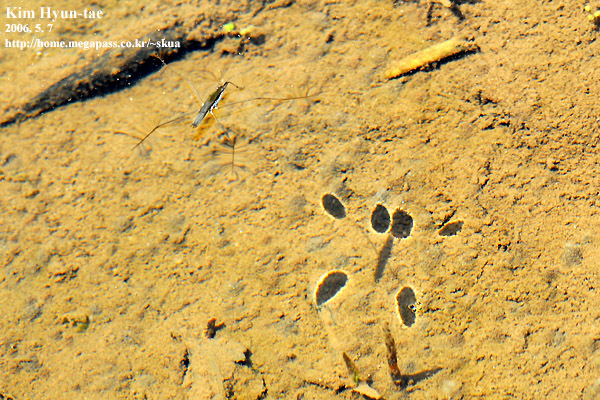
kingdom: Animalia
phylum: Arthropoda
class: Insecta
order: Hemiptera
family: Gerridae
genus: Aquarius
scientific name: Aquarius paludum
